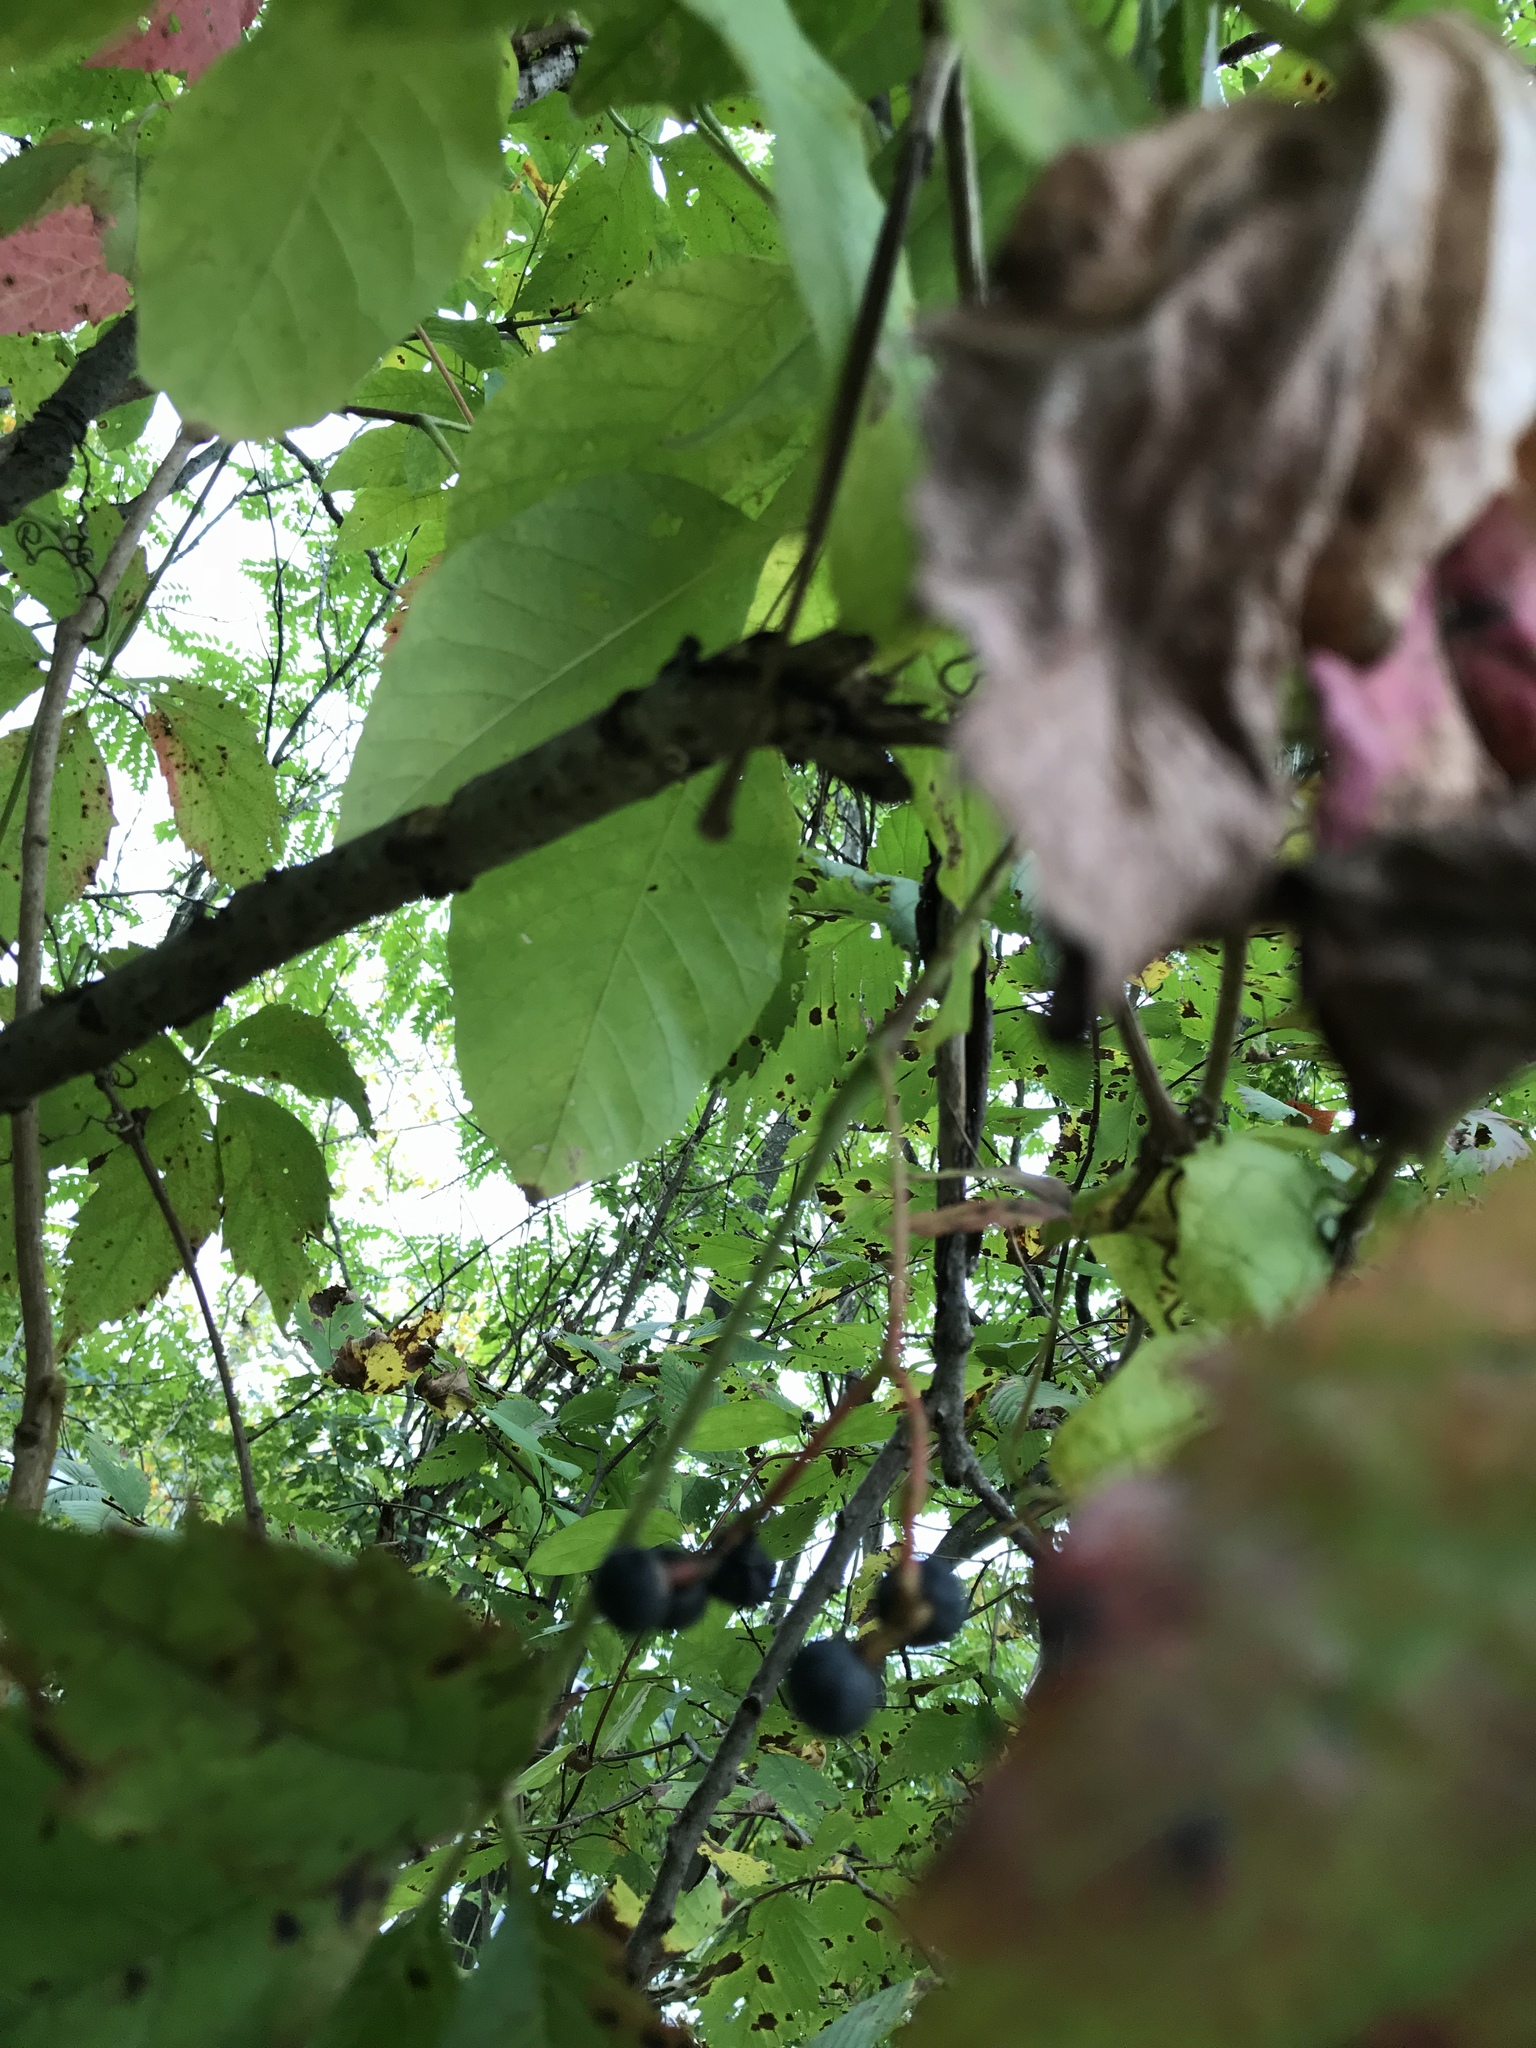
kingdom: Plantae
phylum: Tracheophyta
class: Magnoliopsida
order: Vitales
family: Vitaceae
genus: Parthenocissus
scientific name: Parthenocissus inserta
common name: False virginia-creeper
